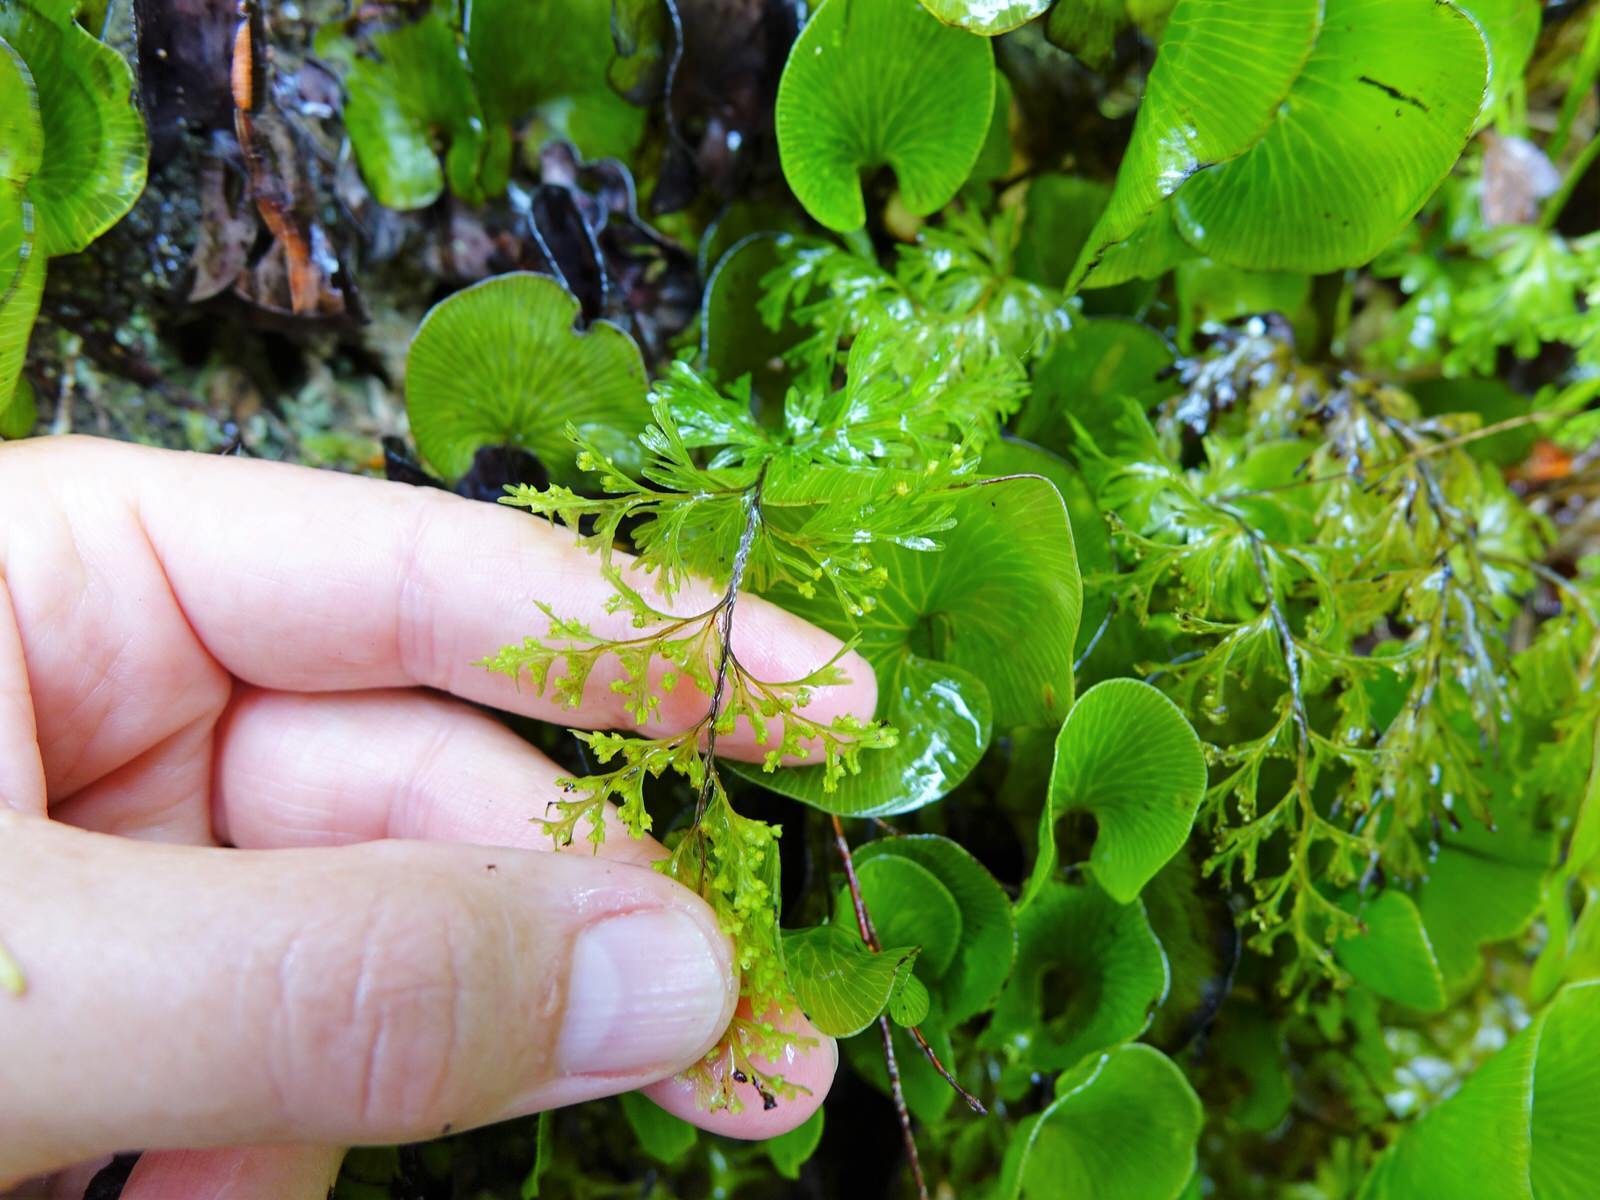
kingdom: Plantae
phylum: Tracheophyta
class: Polypodiopsida
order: Hymenophyllales
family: Hymenophyllaceae
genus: Hymenophyllum
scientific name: Hymenophyllum demissum
